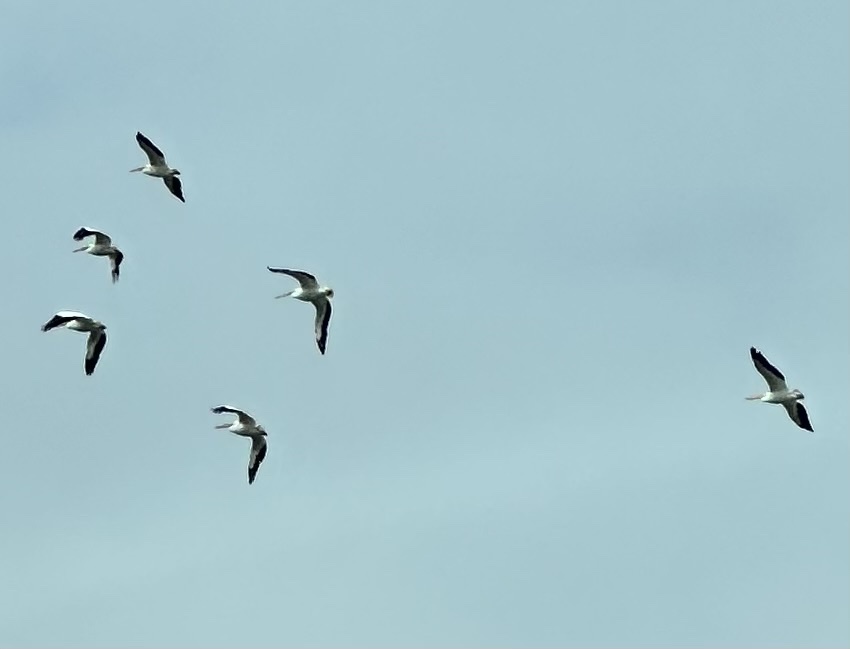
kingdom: Animalia
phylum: Chordata
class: Aves
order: Pelecaniformes
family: Pelecanidae
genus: Pelecanus
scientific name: Pelecanus erythrorhynchos
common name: American white pelican
